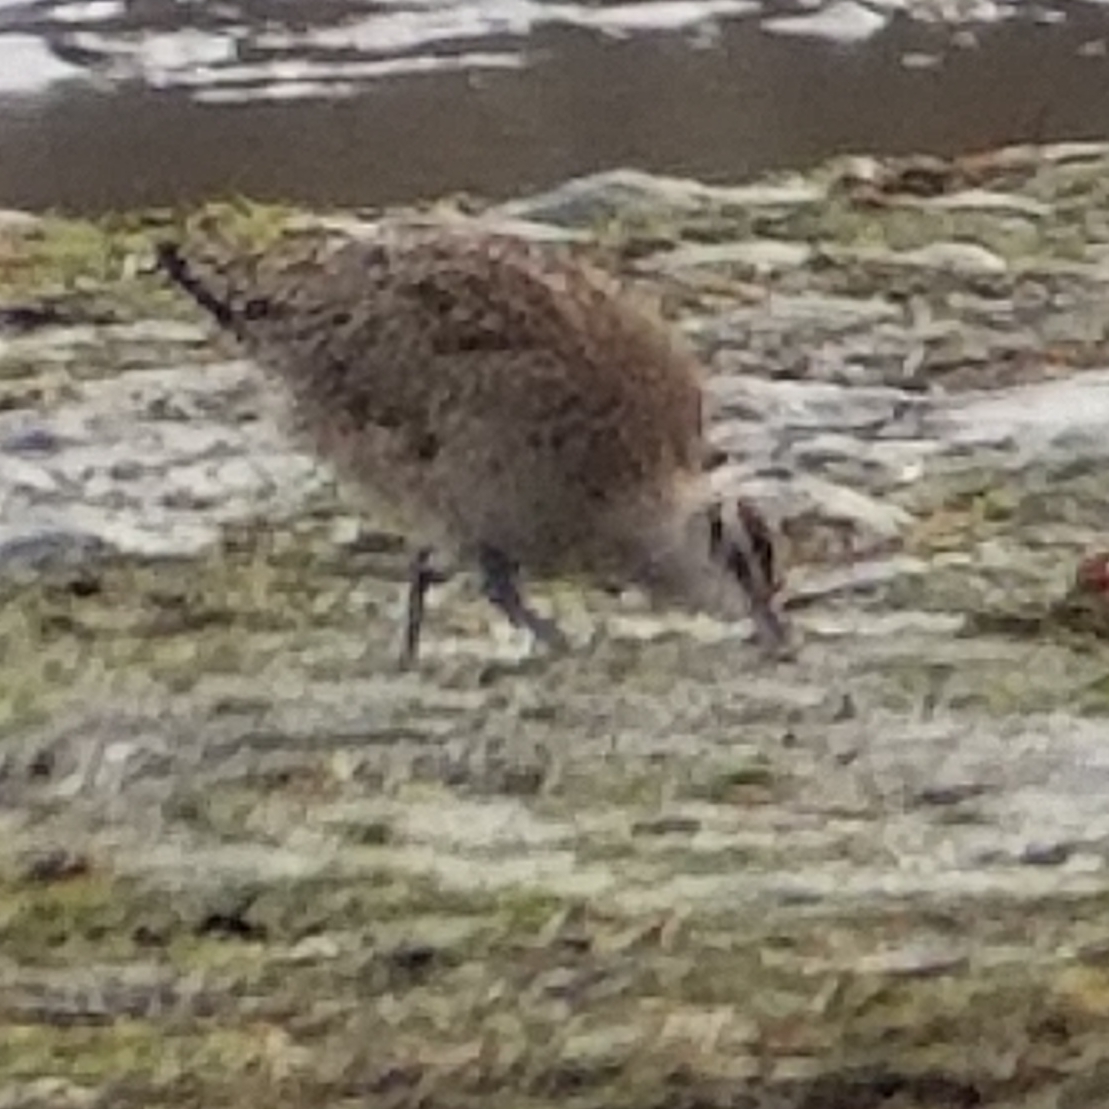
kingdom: Animalia
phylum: Chordata
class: Aves
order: Charadriiformes
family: Scolopacidae
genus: Numenius
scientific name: Numenius phaeopus
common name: Whimbrel
